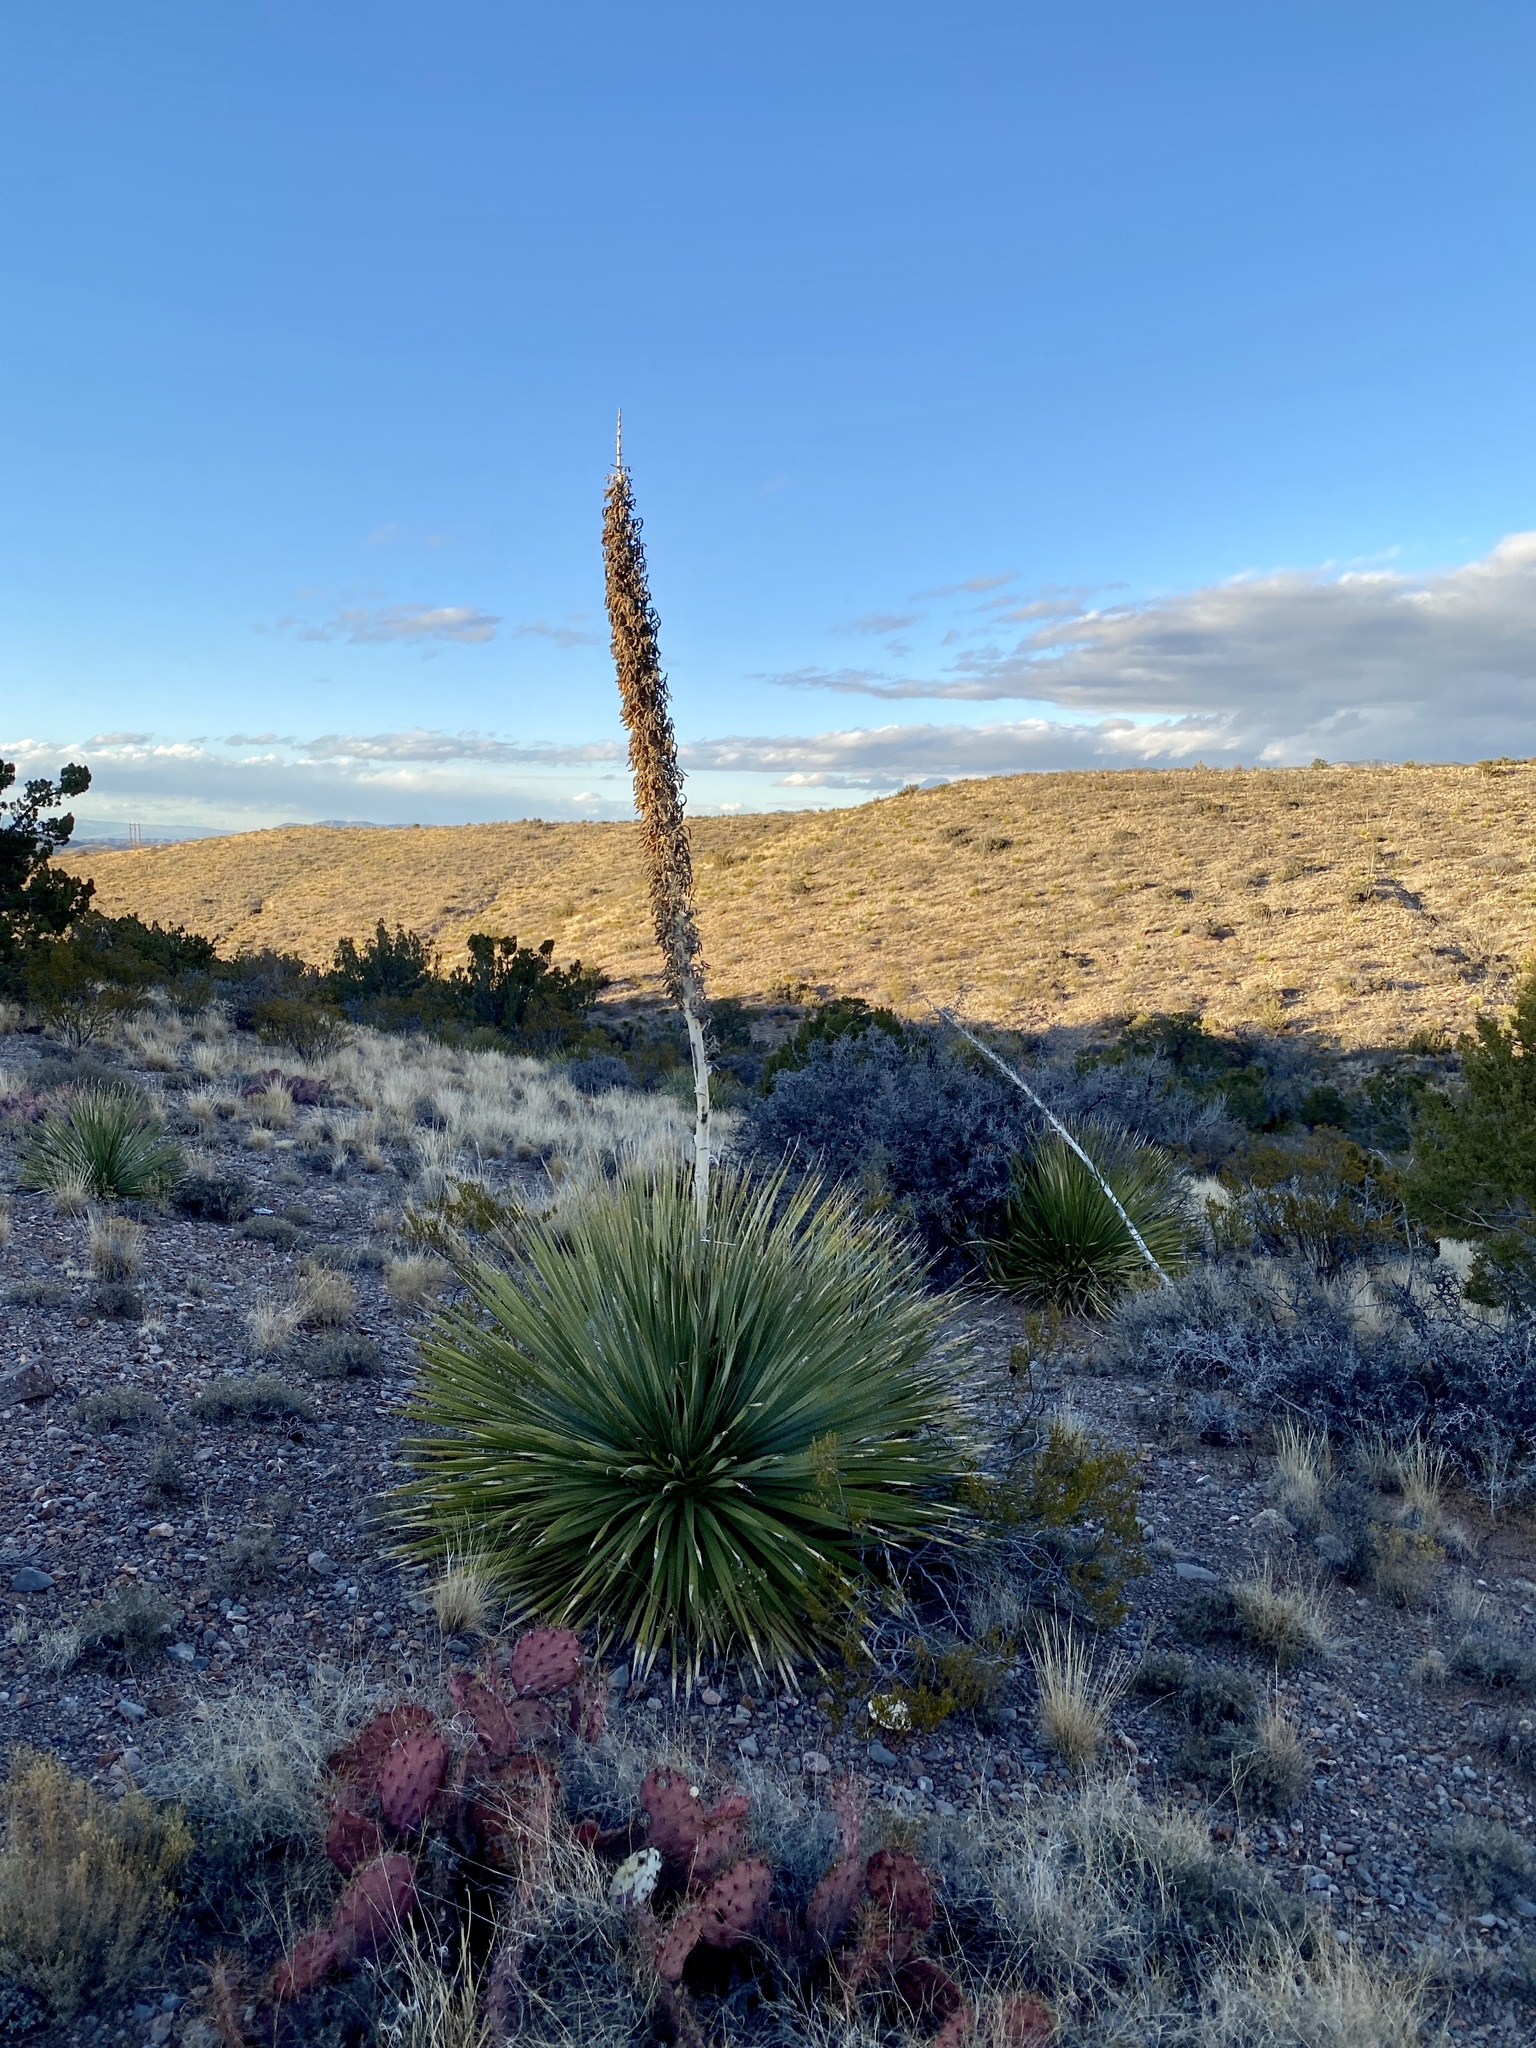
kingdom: Plantae
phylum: Tracheophyta
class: Liliopsida
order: Asparagales
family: Asparagaceae
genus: Dasylirion
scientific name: Dasylirion wheeleri
